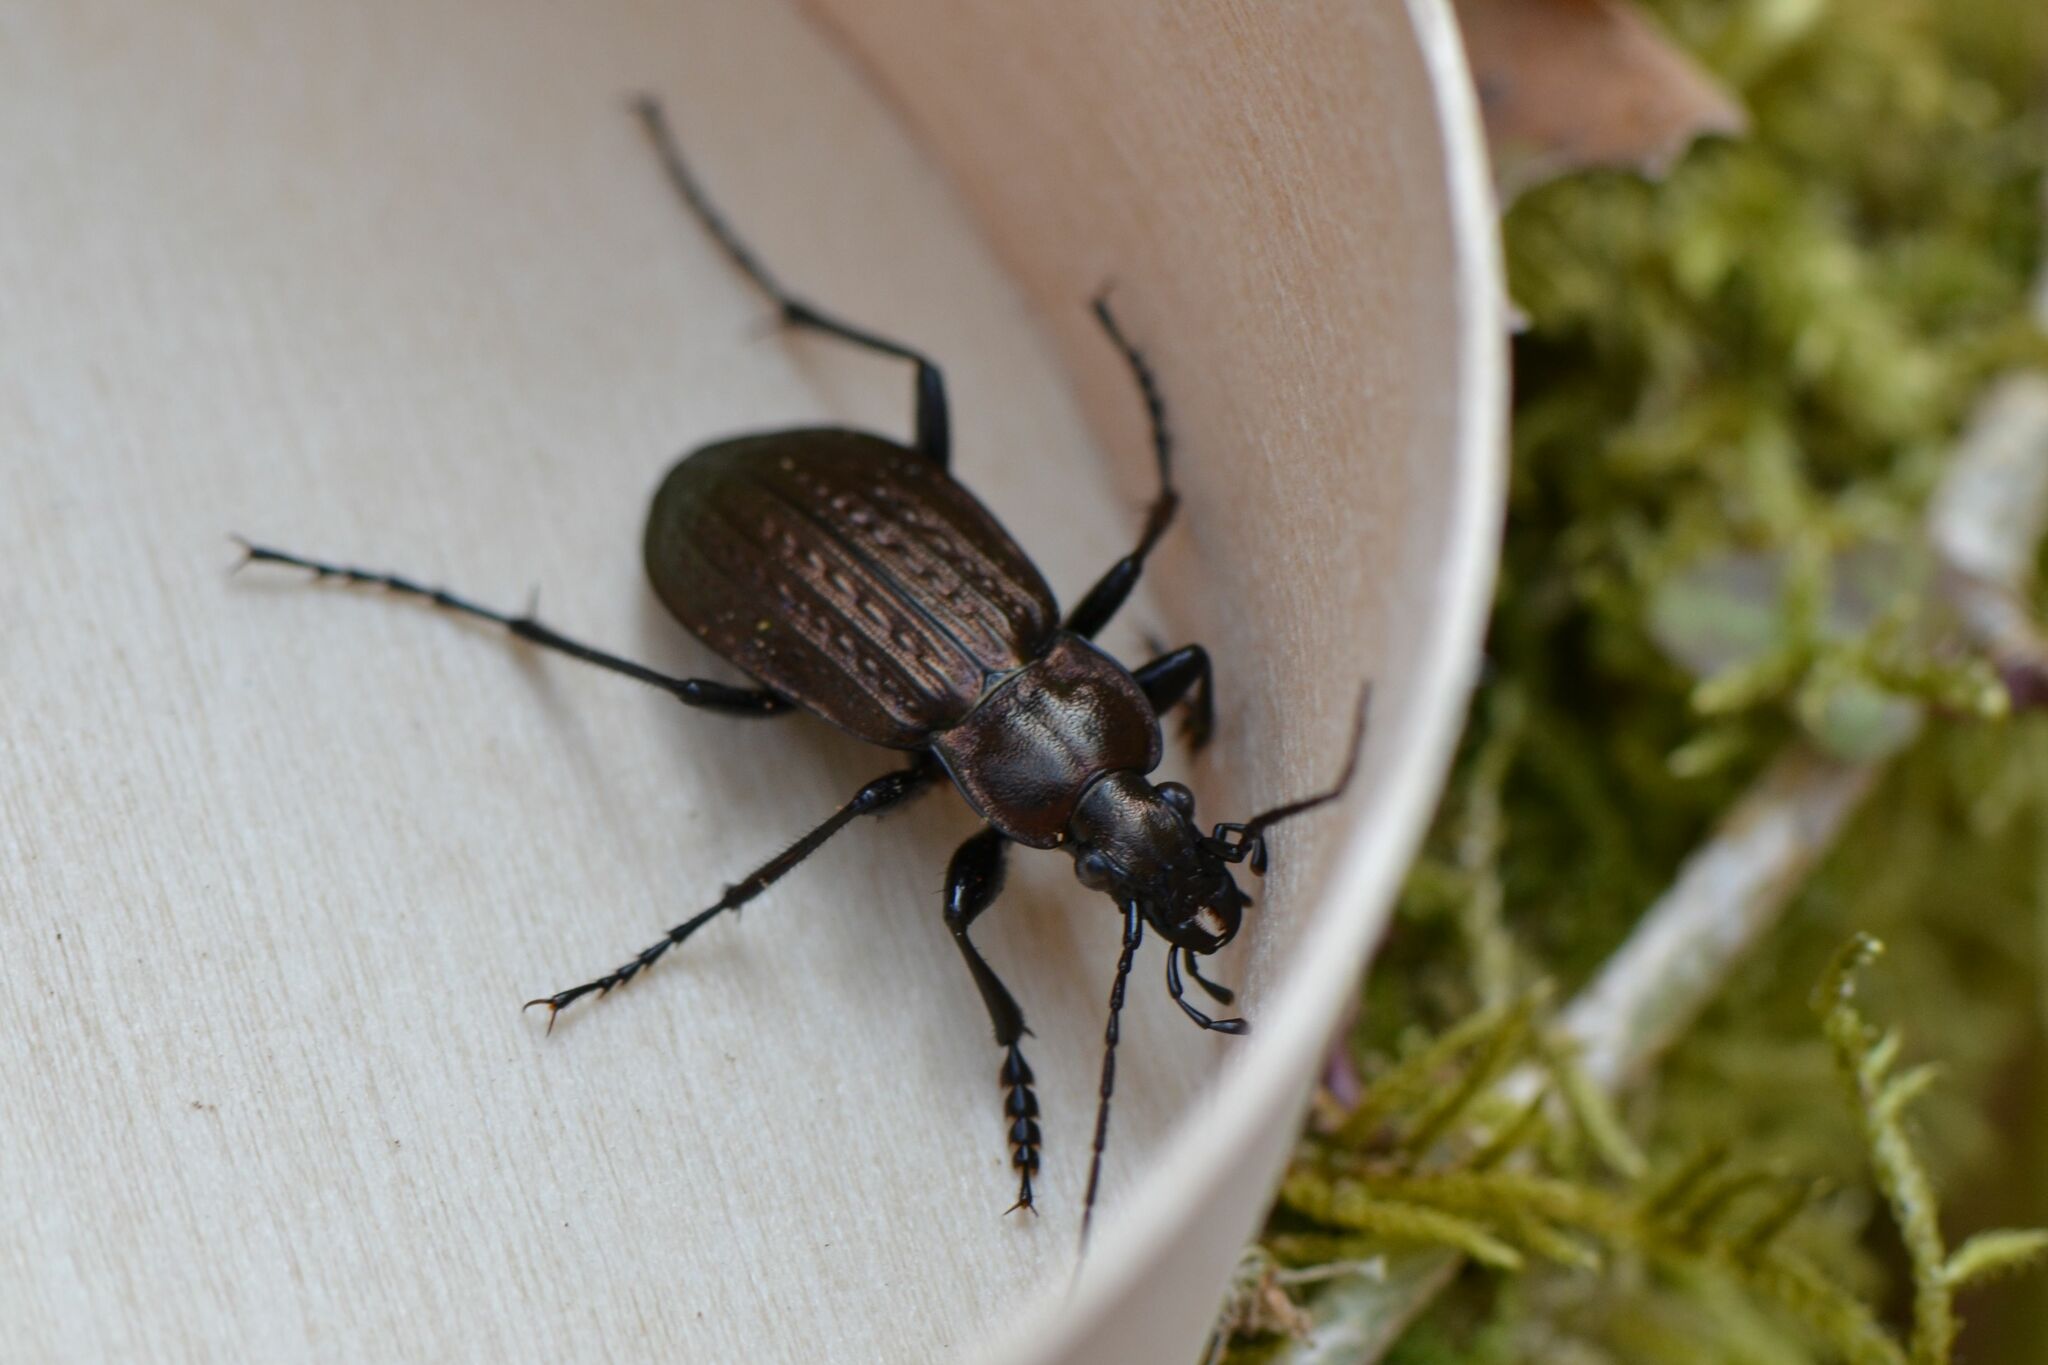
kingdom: Animalia
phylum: Arthropoda
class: Insecta
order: Coleoptera
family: Carabidae
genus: Carabus
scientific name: Carabus granulatus
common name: Granulate ground beetle
